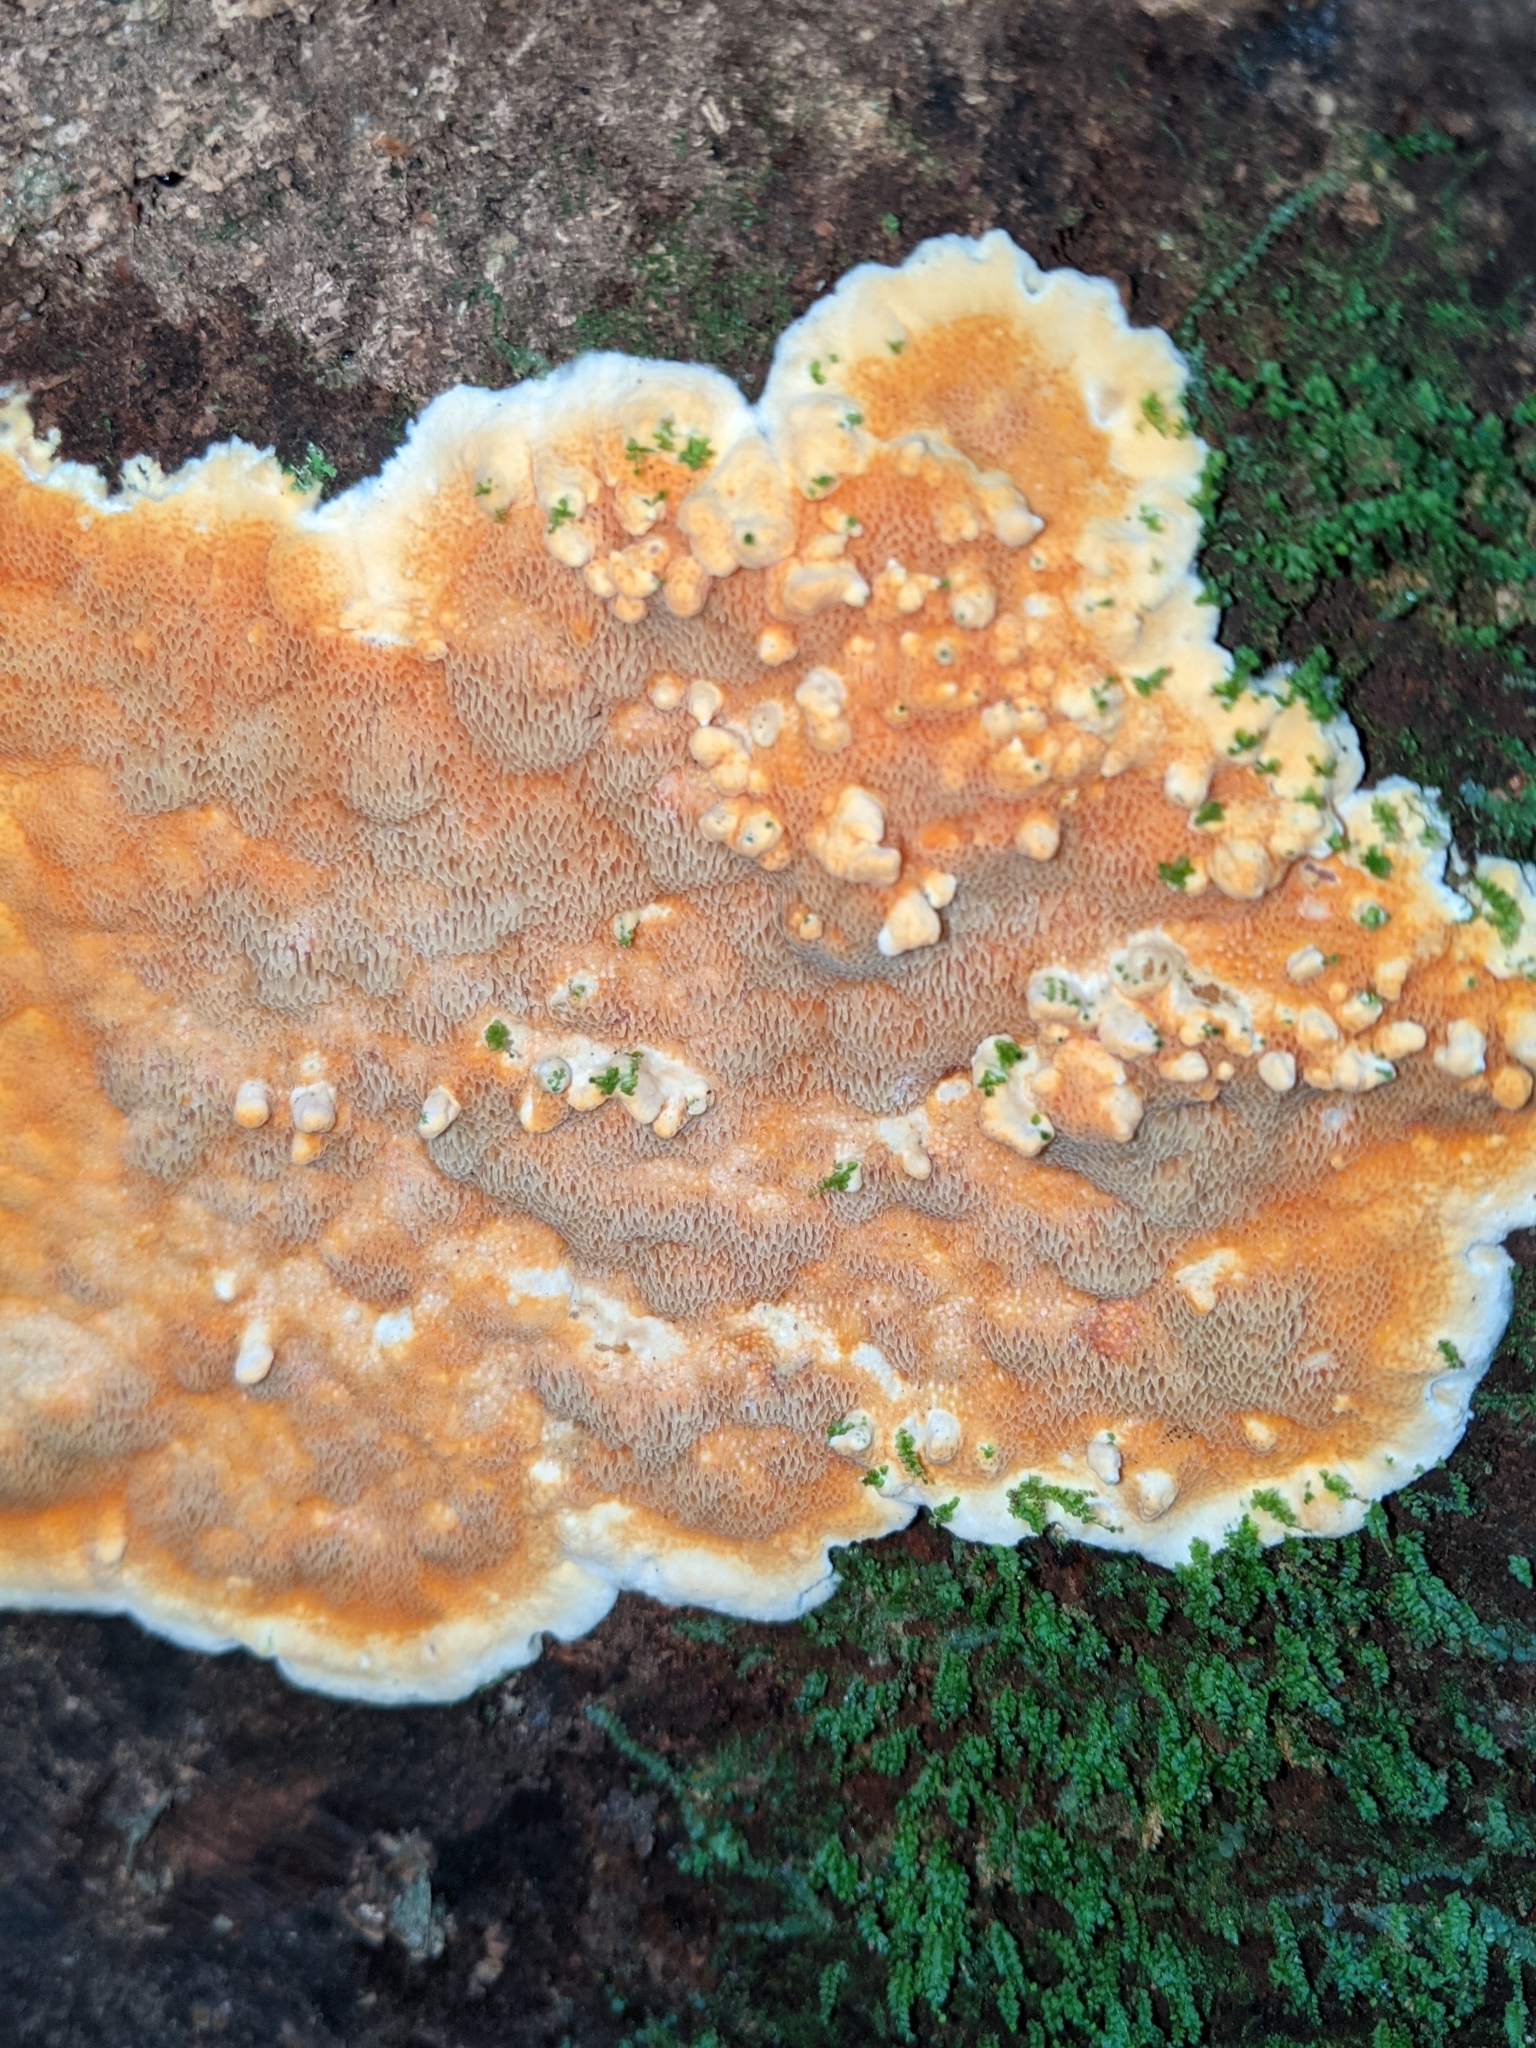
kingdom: Fungi
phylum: Basidiomycota
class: Agaricomycetes
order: Polyporales
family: Meruliaceae
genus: Phlebia
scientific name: Phlebia radiata
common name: Wrinkled crust
